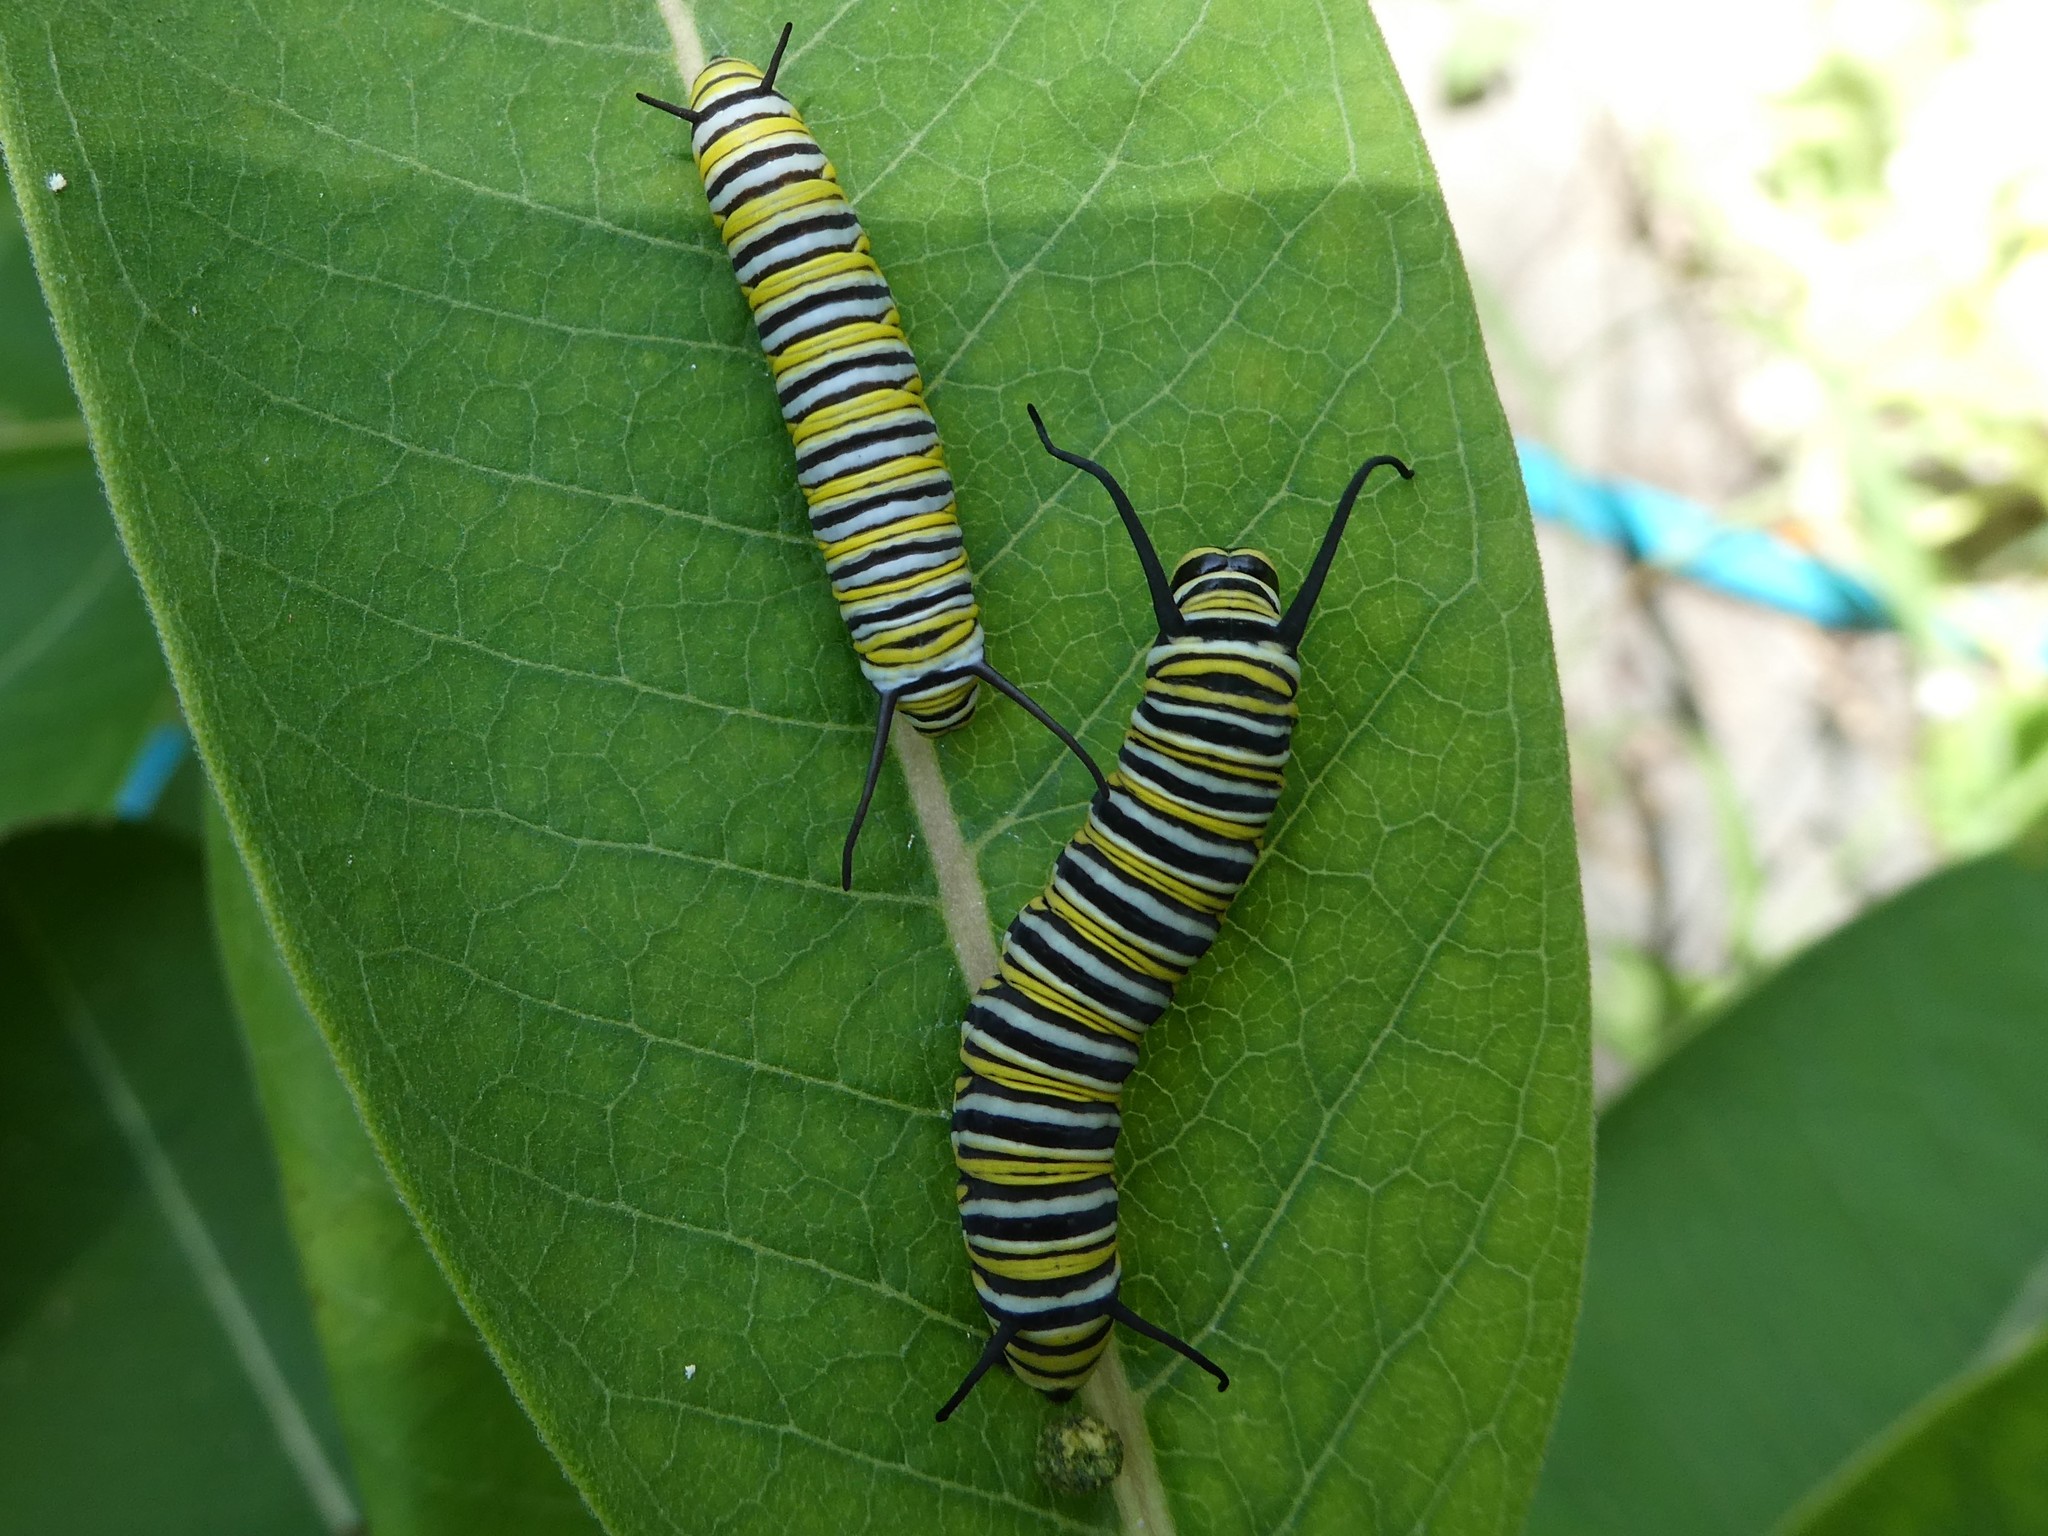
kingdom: Animalia
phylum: Arthropoda
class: Insecta
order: Lepidoptera
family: Nymphalidae
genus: Danaus
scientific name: Danaus plexippus
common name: Monarch
